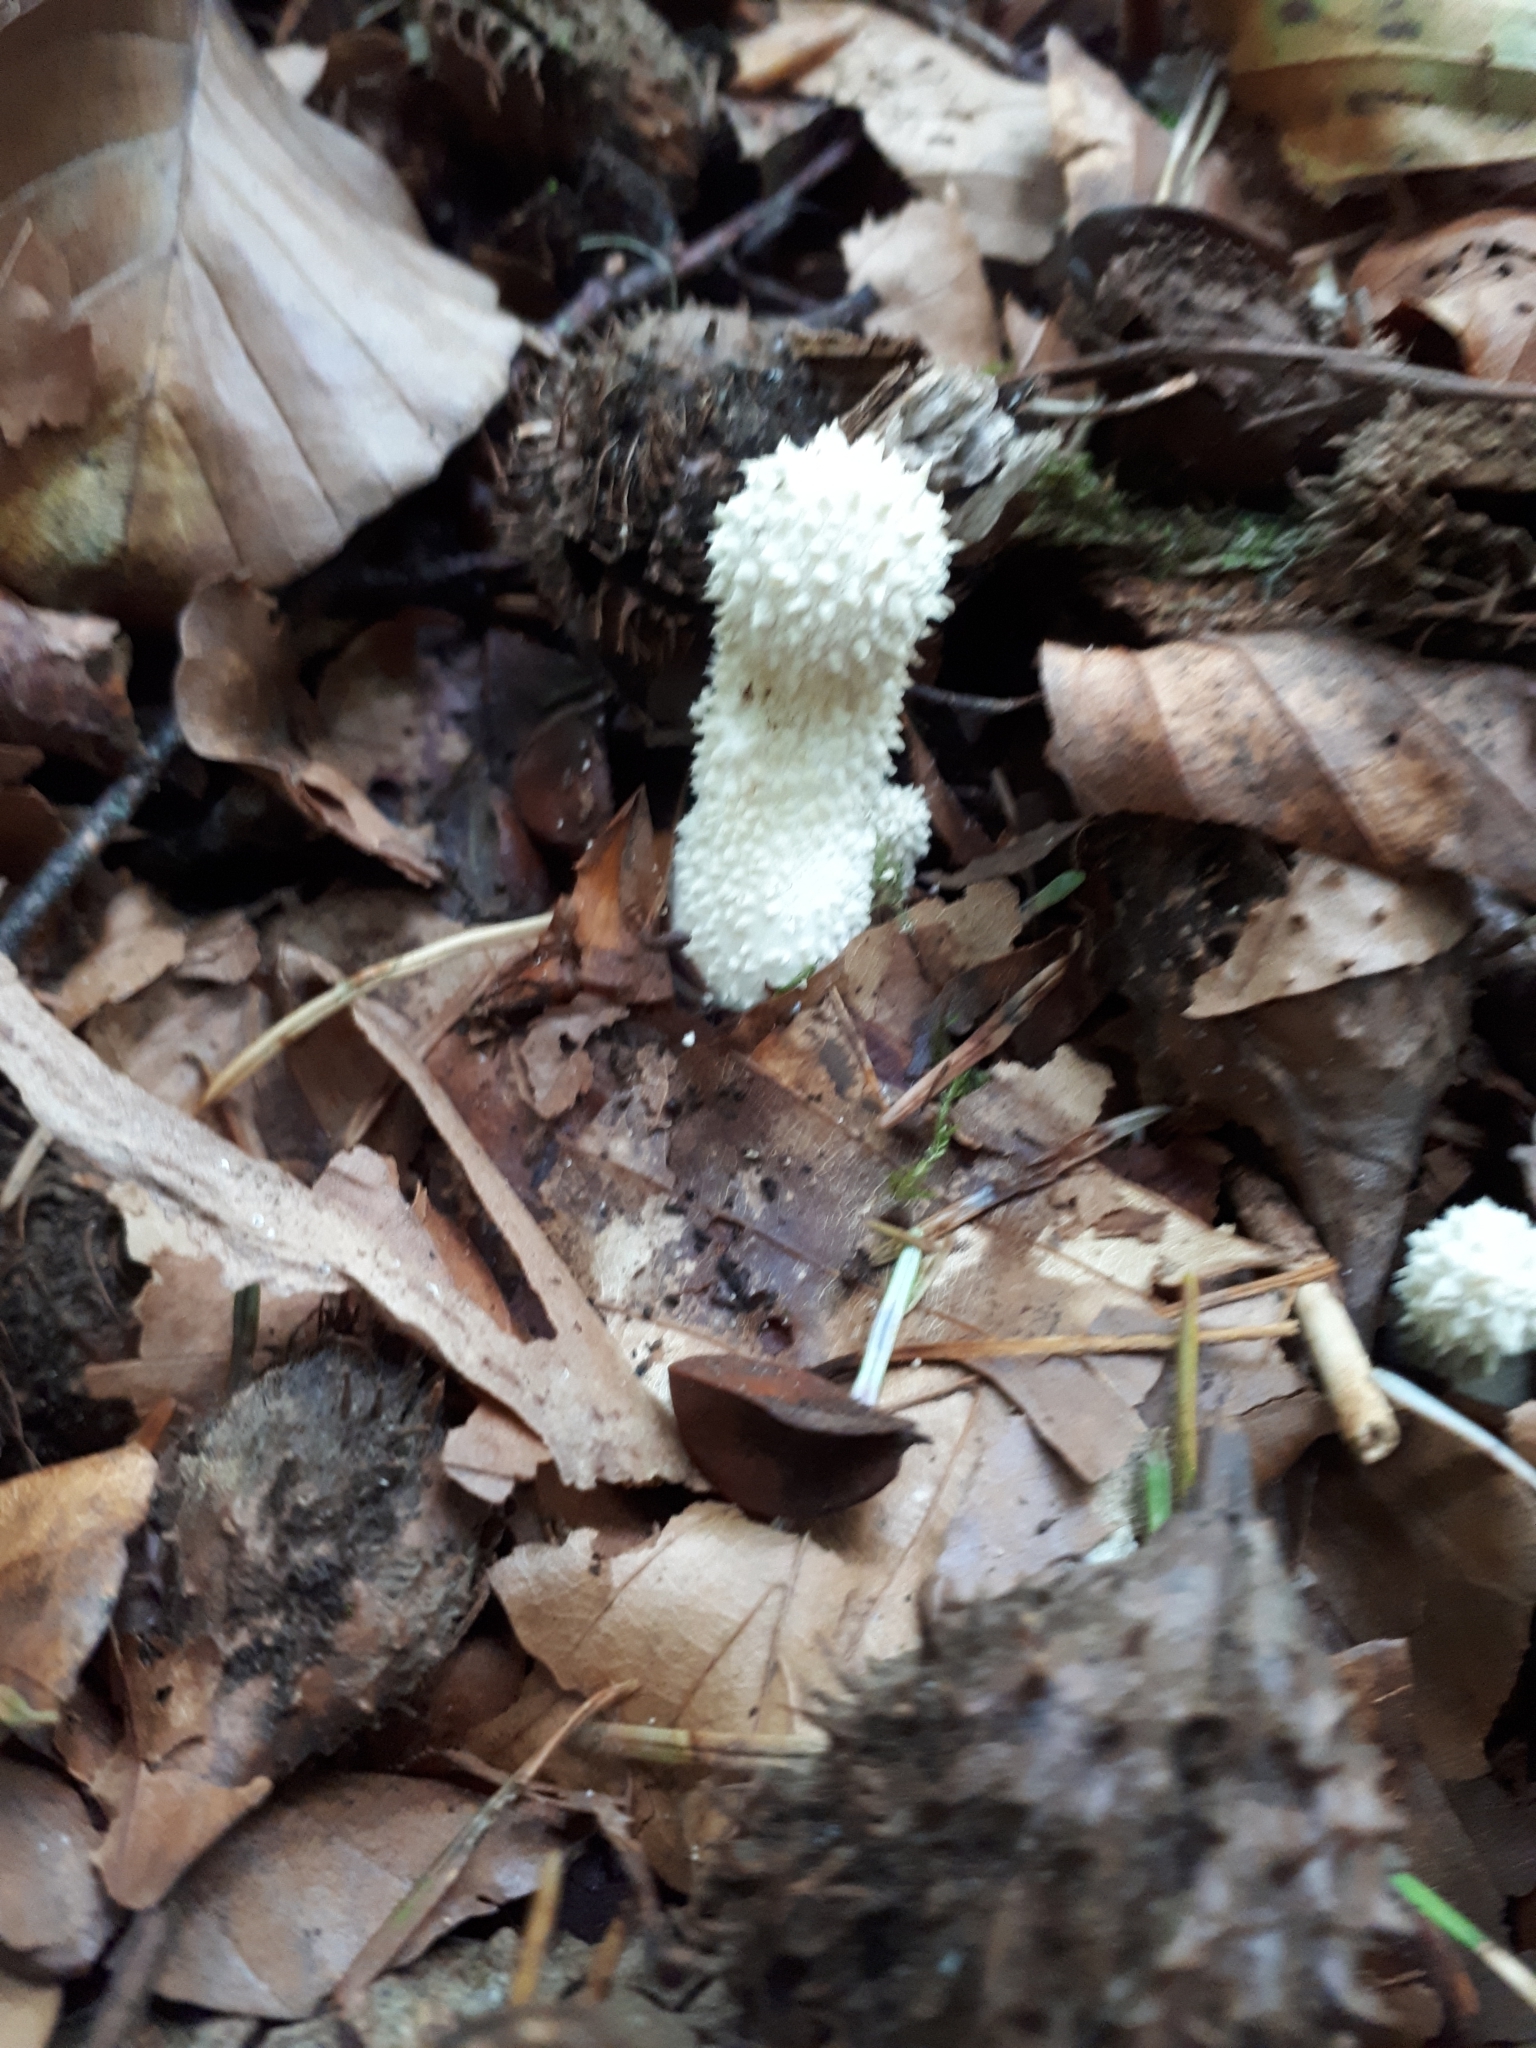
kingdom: Fungi
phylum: Basidiomycota
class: Agaricomycetes
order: Agaricales
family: Lycoperdaceae
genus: Lycoperdon
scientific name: Lycoperdon perlatum
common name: Common puffball
